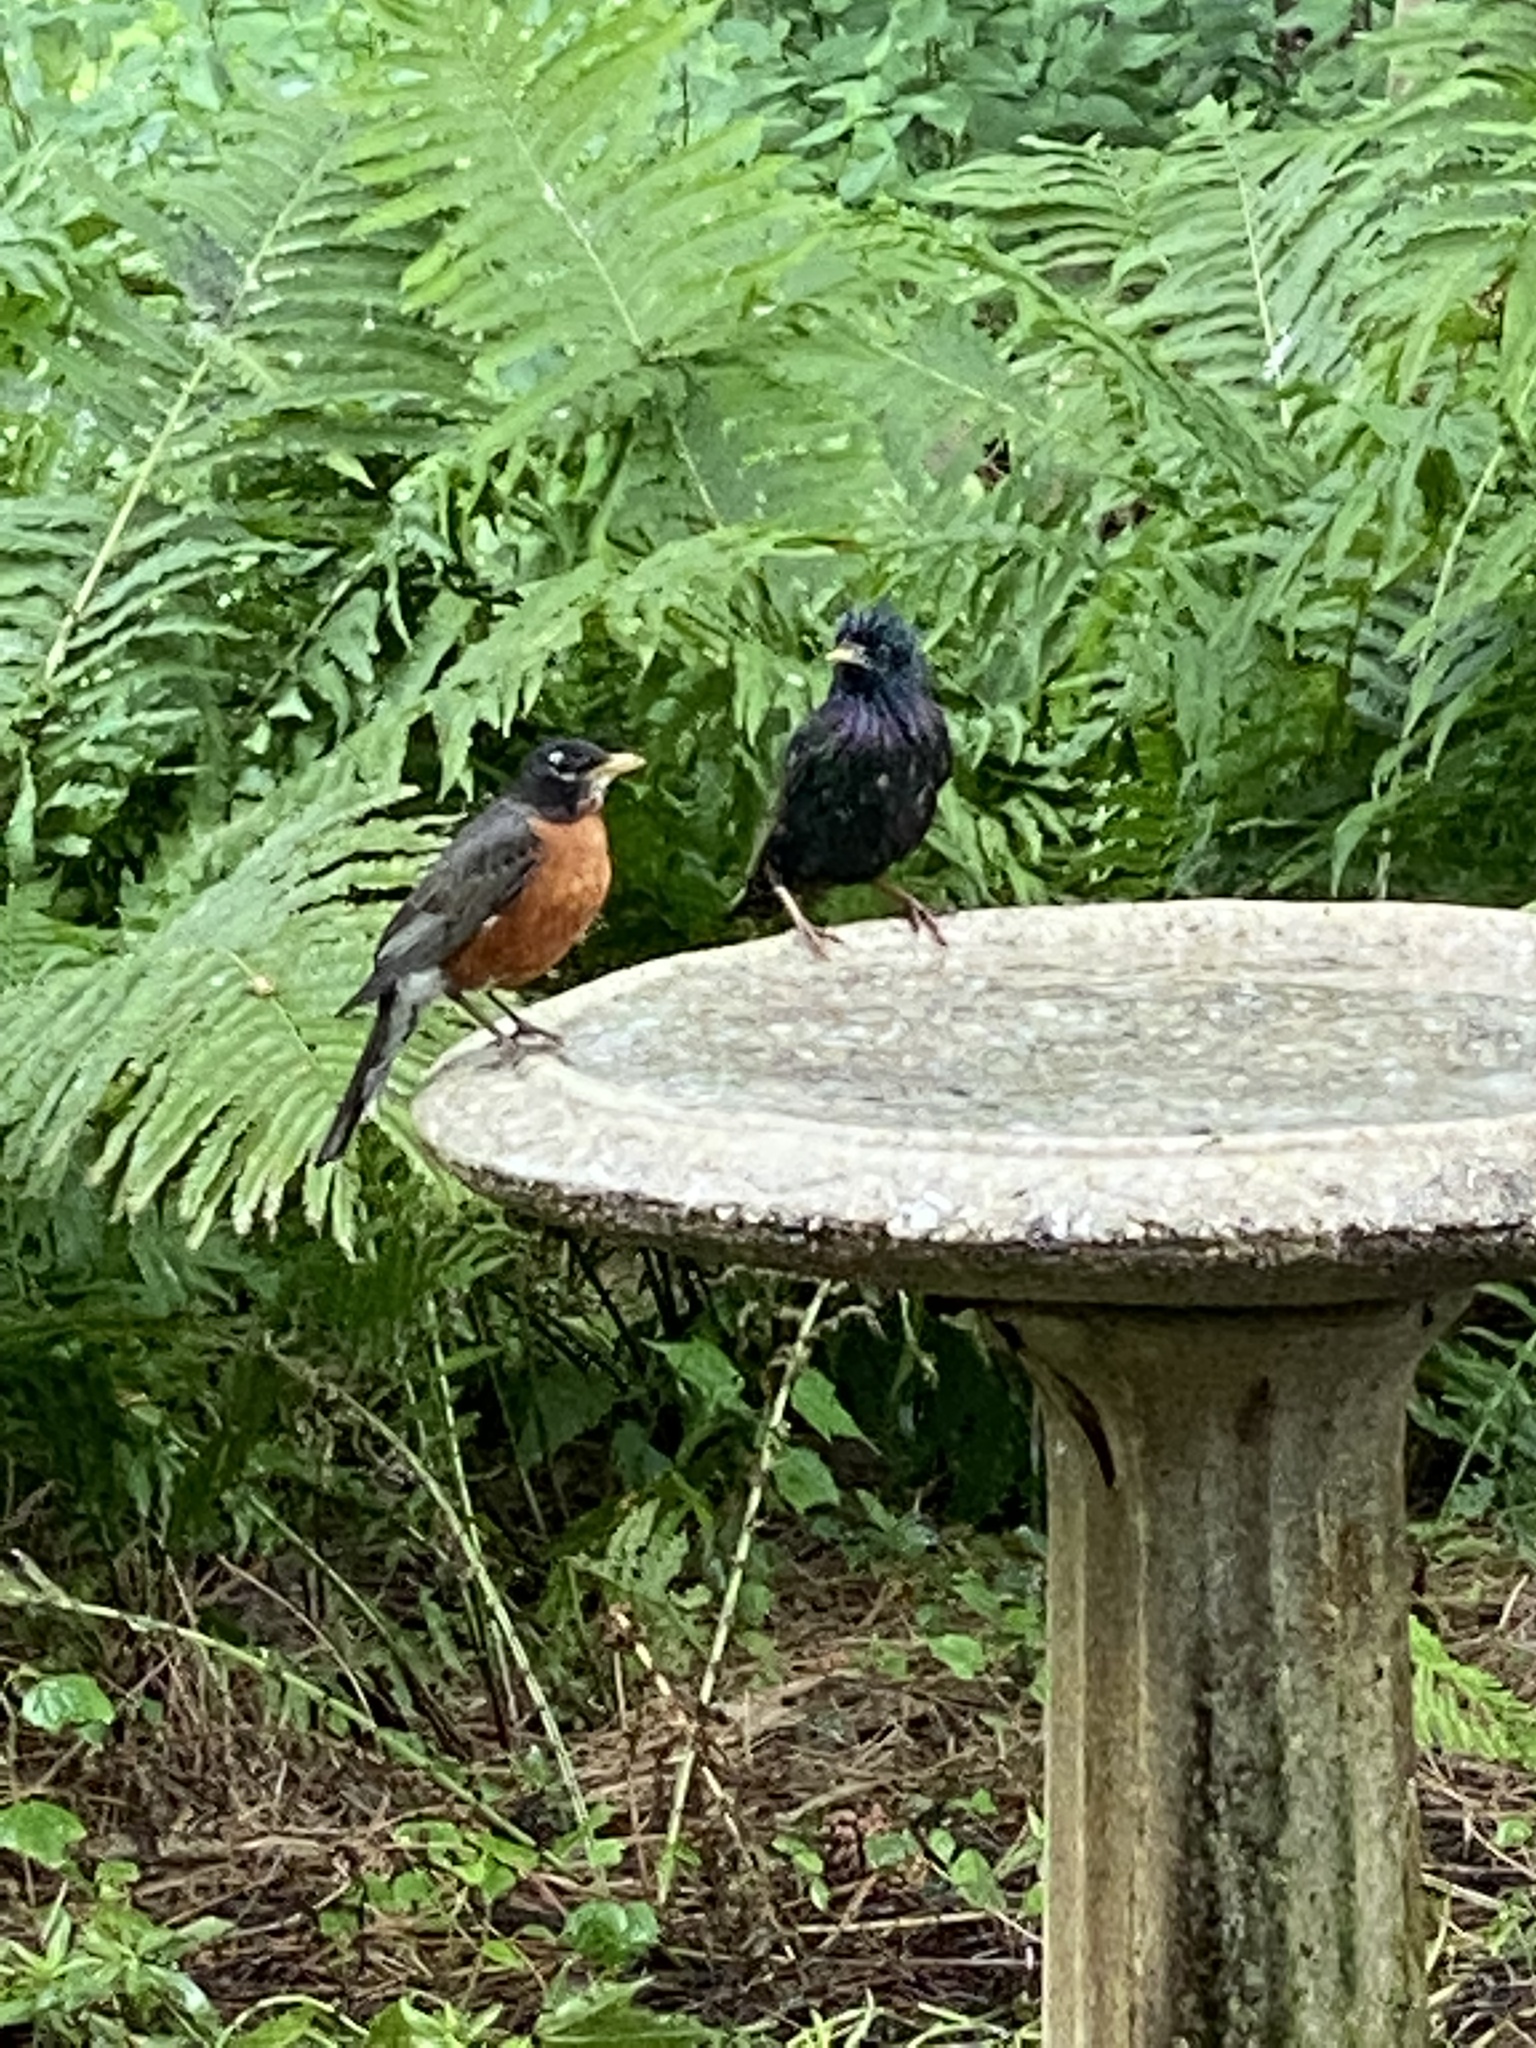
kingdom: Animalia
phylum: Chordata
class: Aves
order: Passeriformes
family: Turdidae
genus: Turdus
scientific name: Turdus migratorius
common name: American robin
